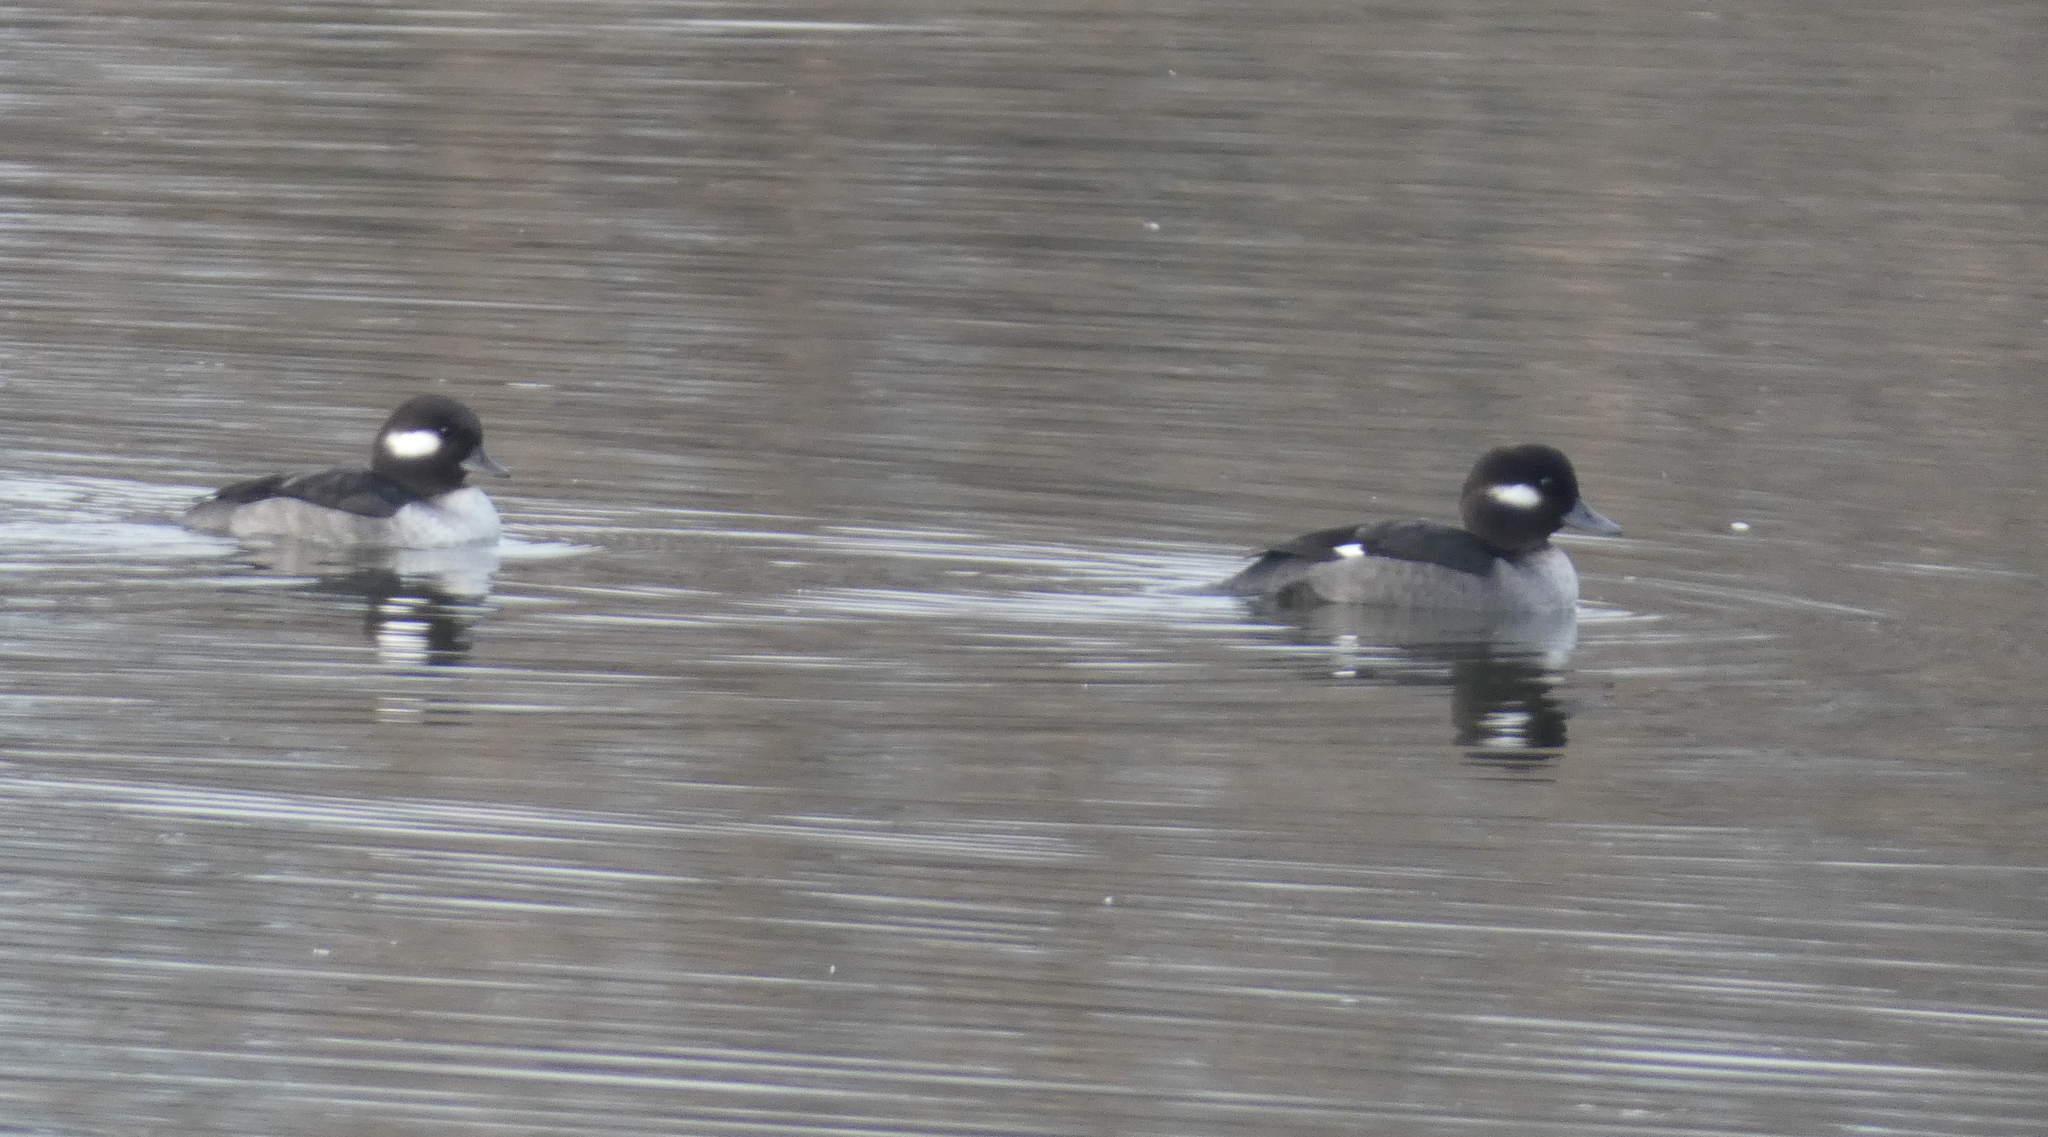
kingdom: Animalia
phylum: Chordata
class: Aves
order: Anseriformes
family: Anatidae
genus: Bucephala
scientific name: Bucephala albeola
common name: Bufflehead
